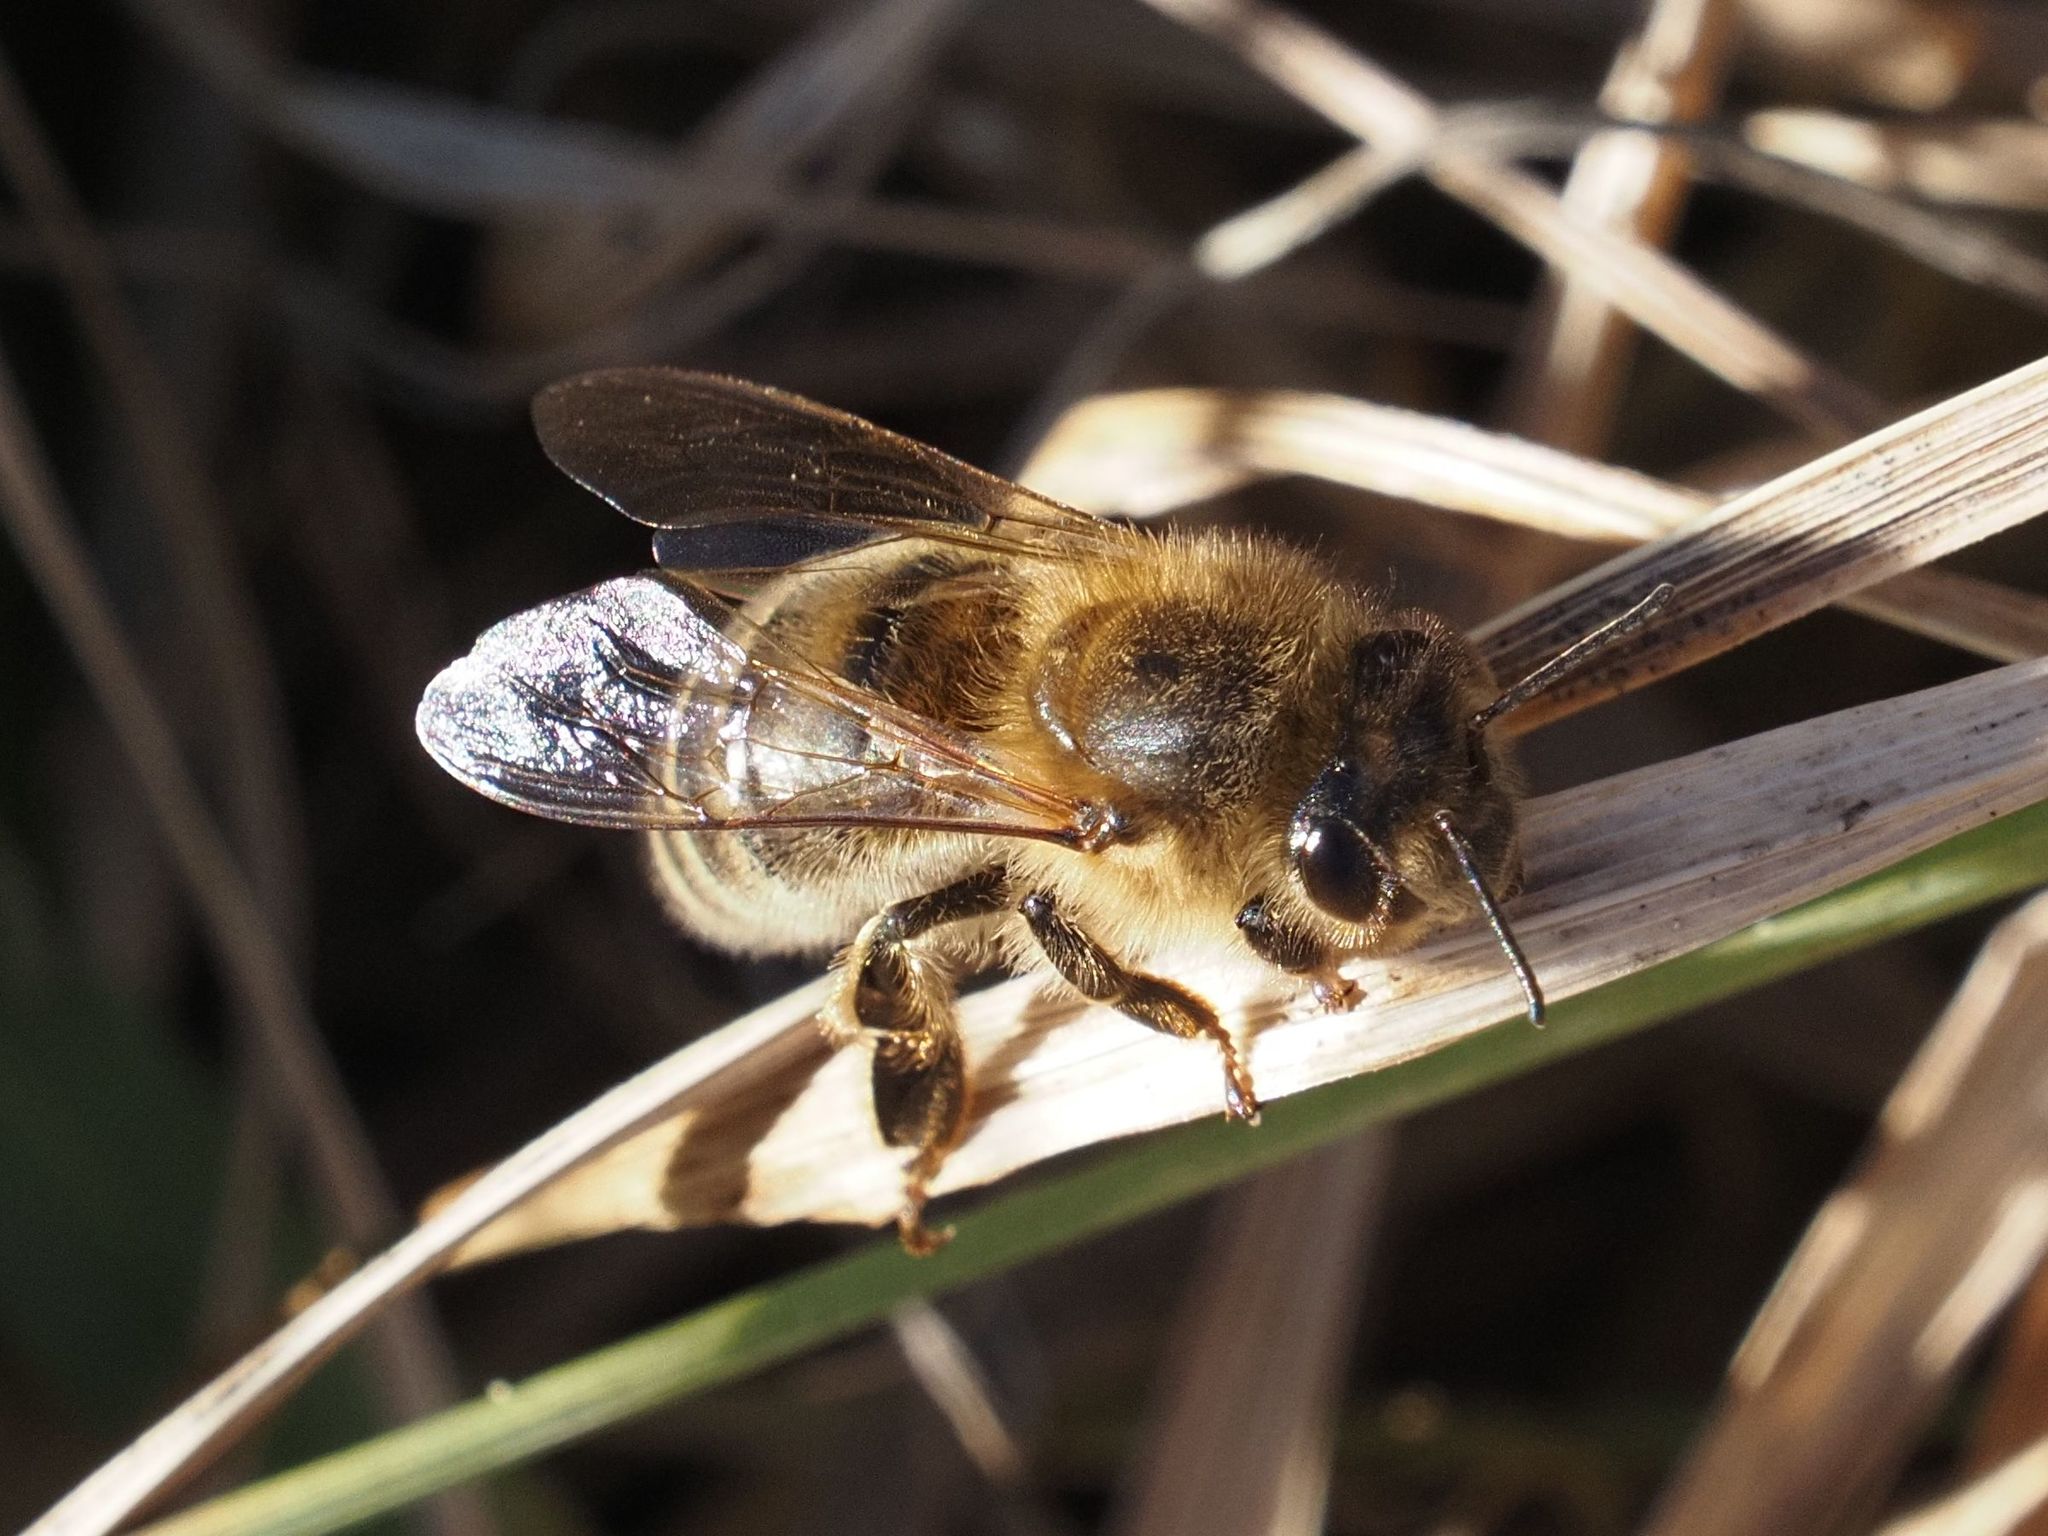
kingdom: Animalia
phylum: Arthropoda
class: Insecta
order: Hymenoptera
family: Apidae
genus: Apis
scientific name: Apis mellifera
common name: Honey bee
